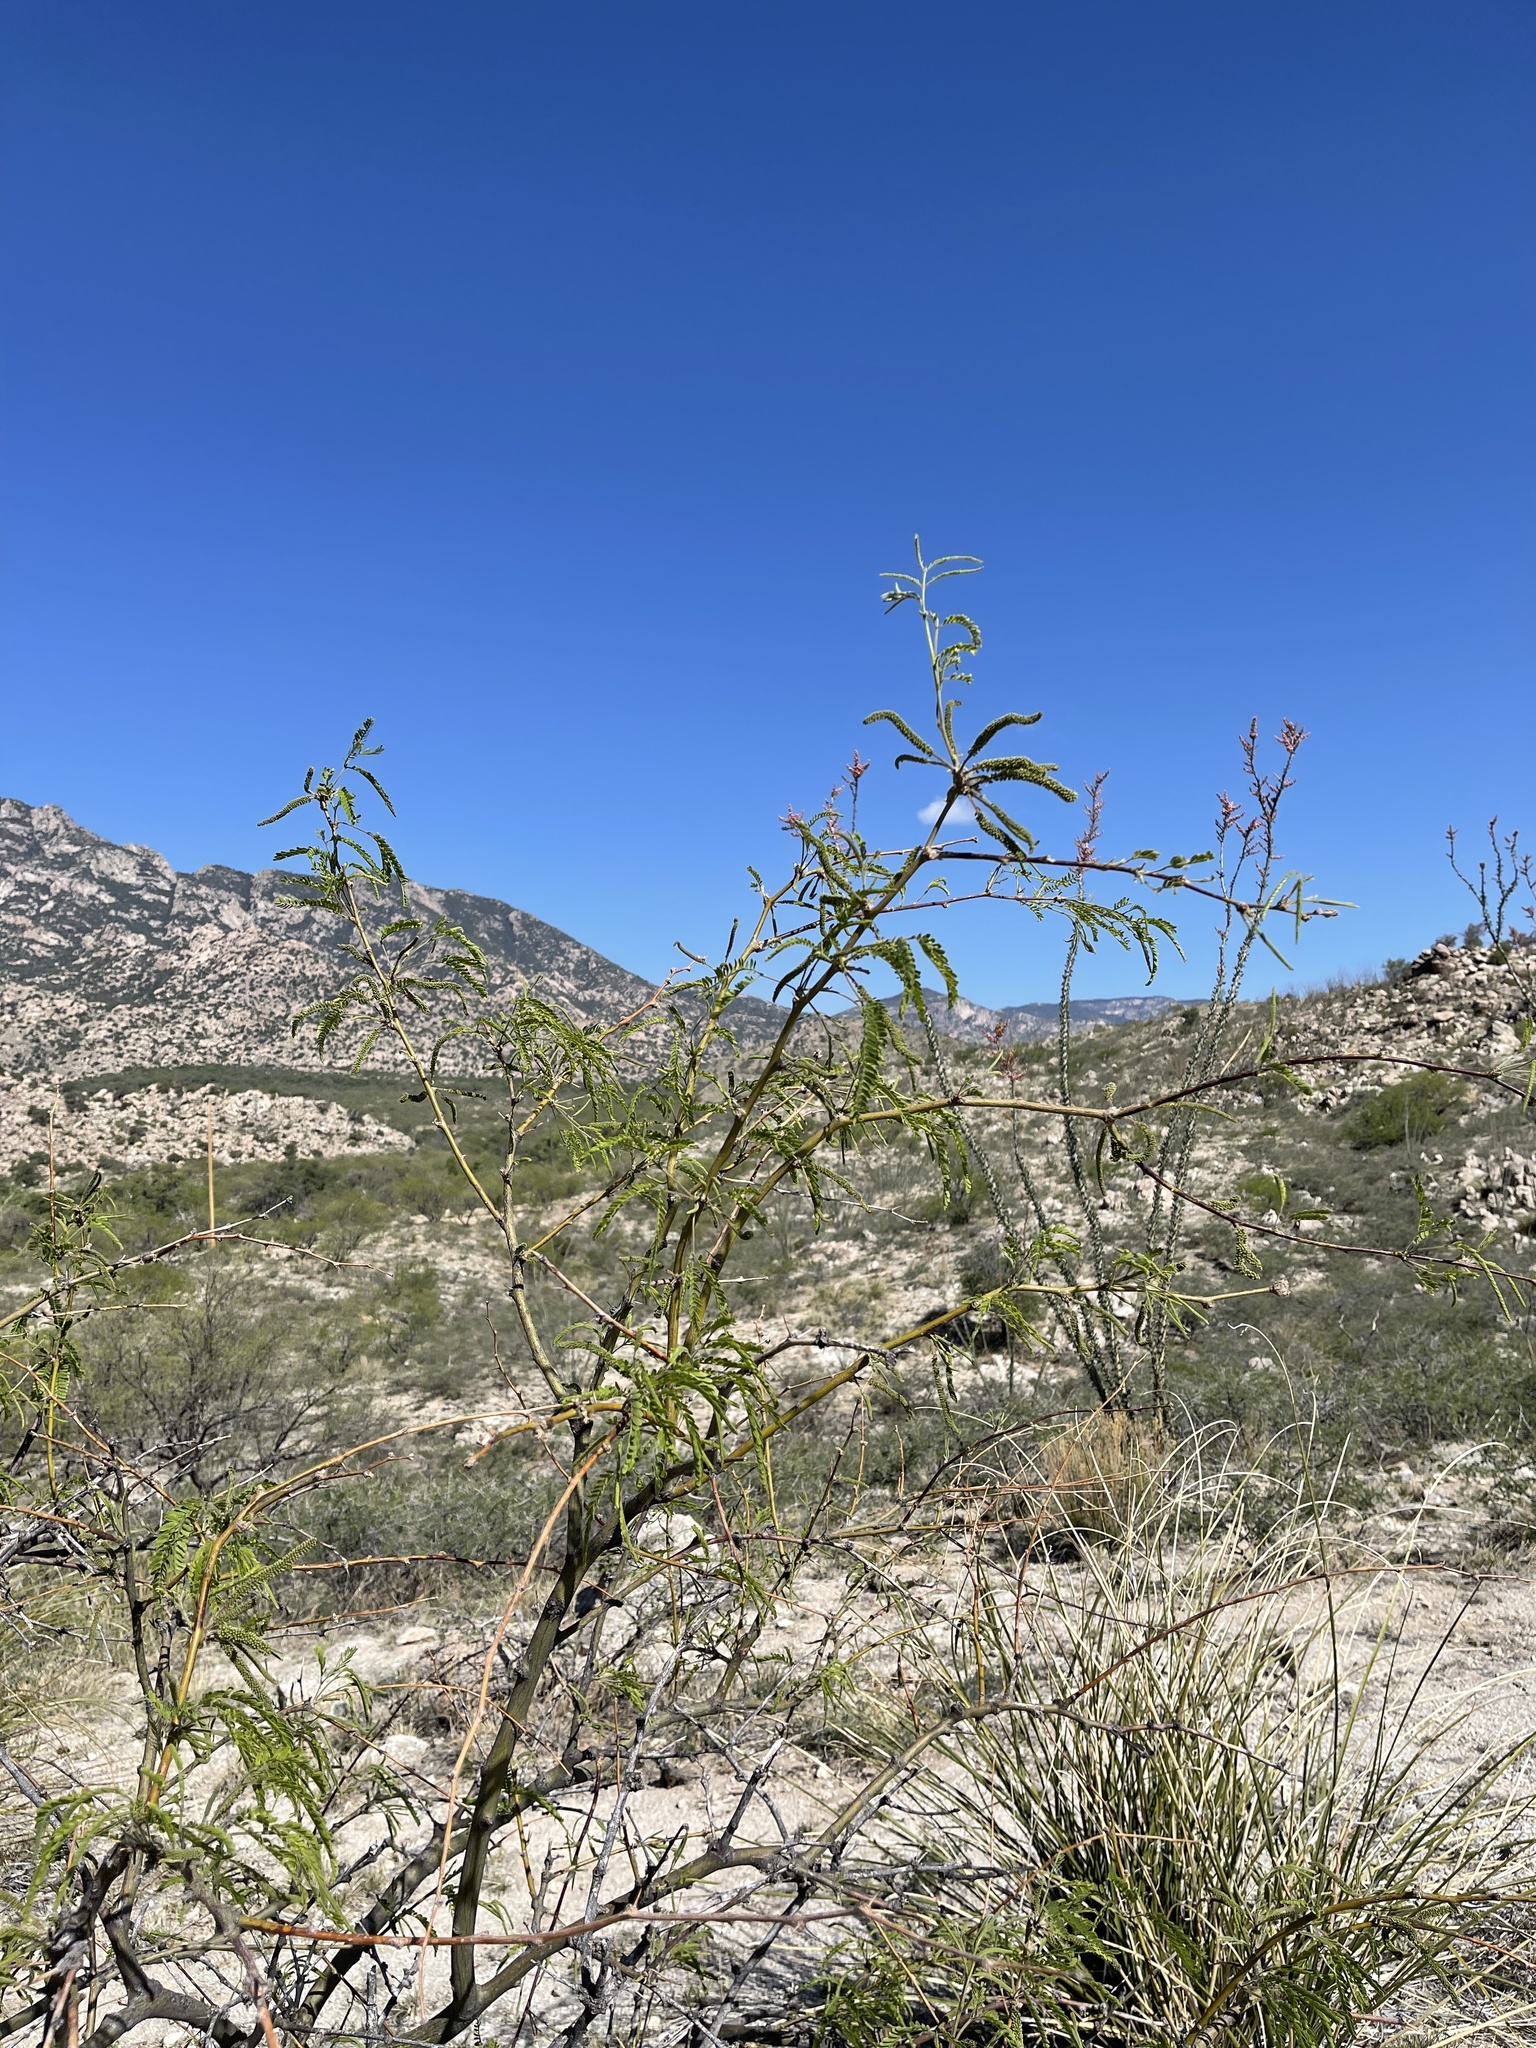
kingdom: Plantae
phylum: Tracheophyta
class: Magnoliopsida
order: Fabales
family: Fabaceae
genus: Prosopis
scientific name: Prosopis velutina
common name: Velvet mesquite
